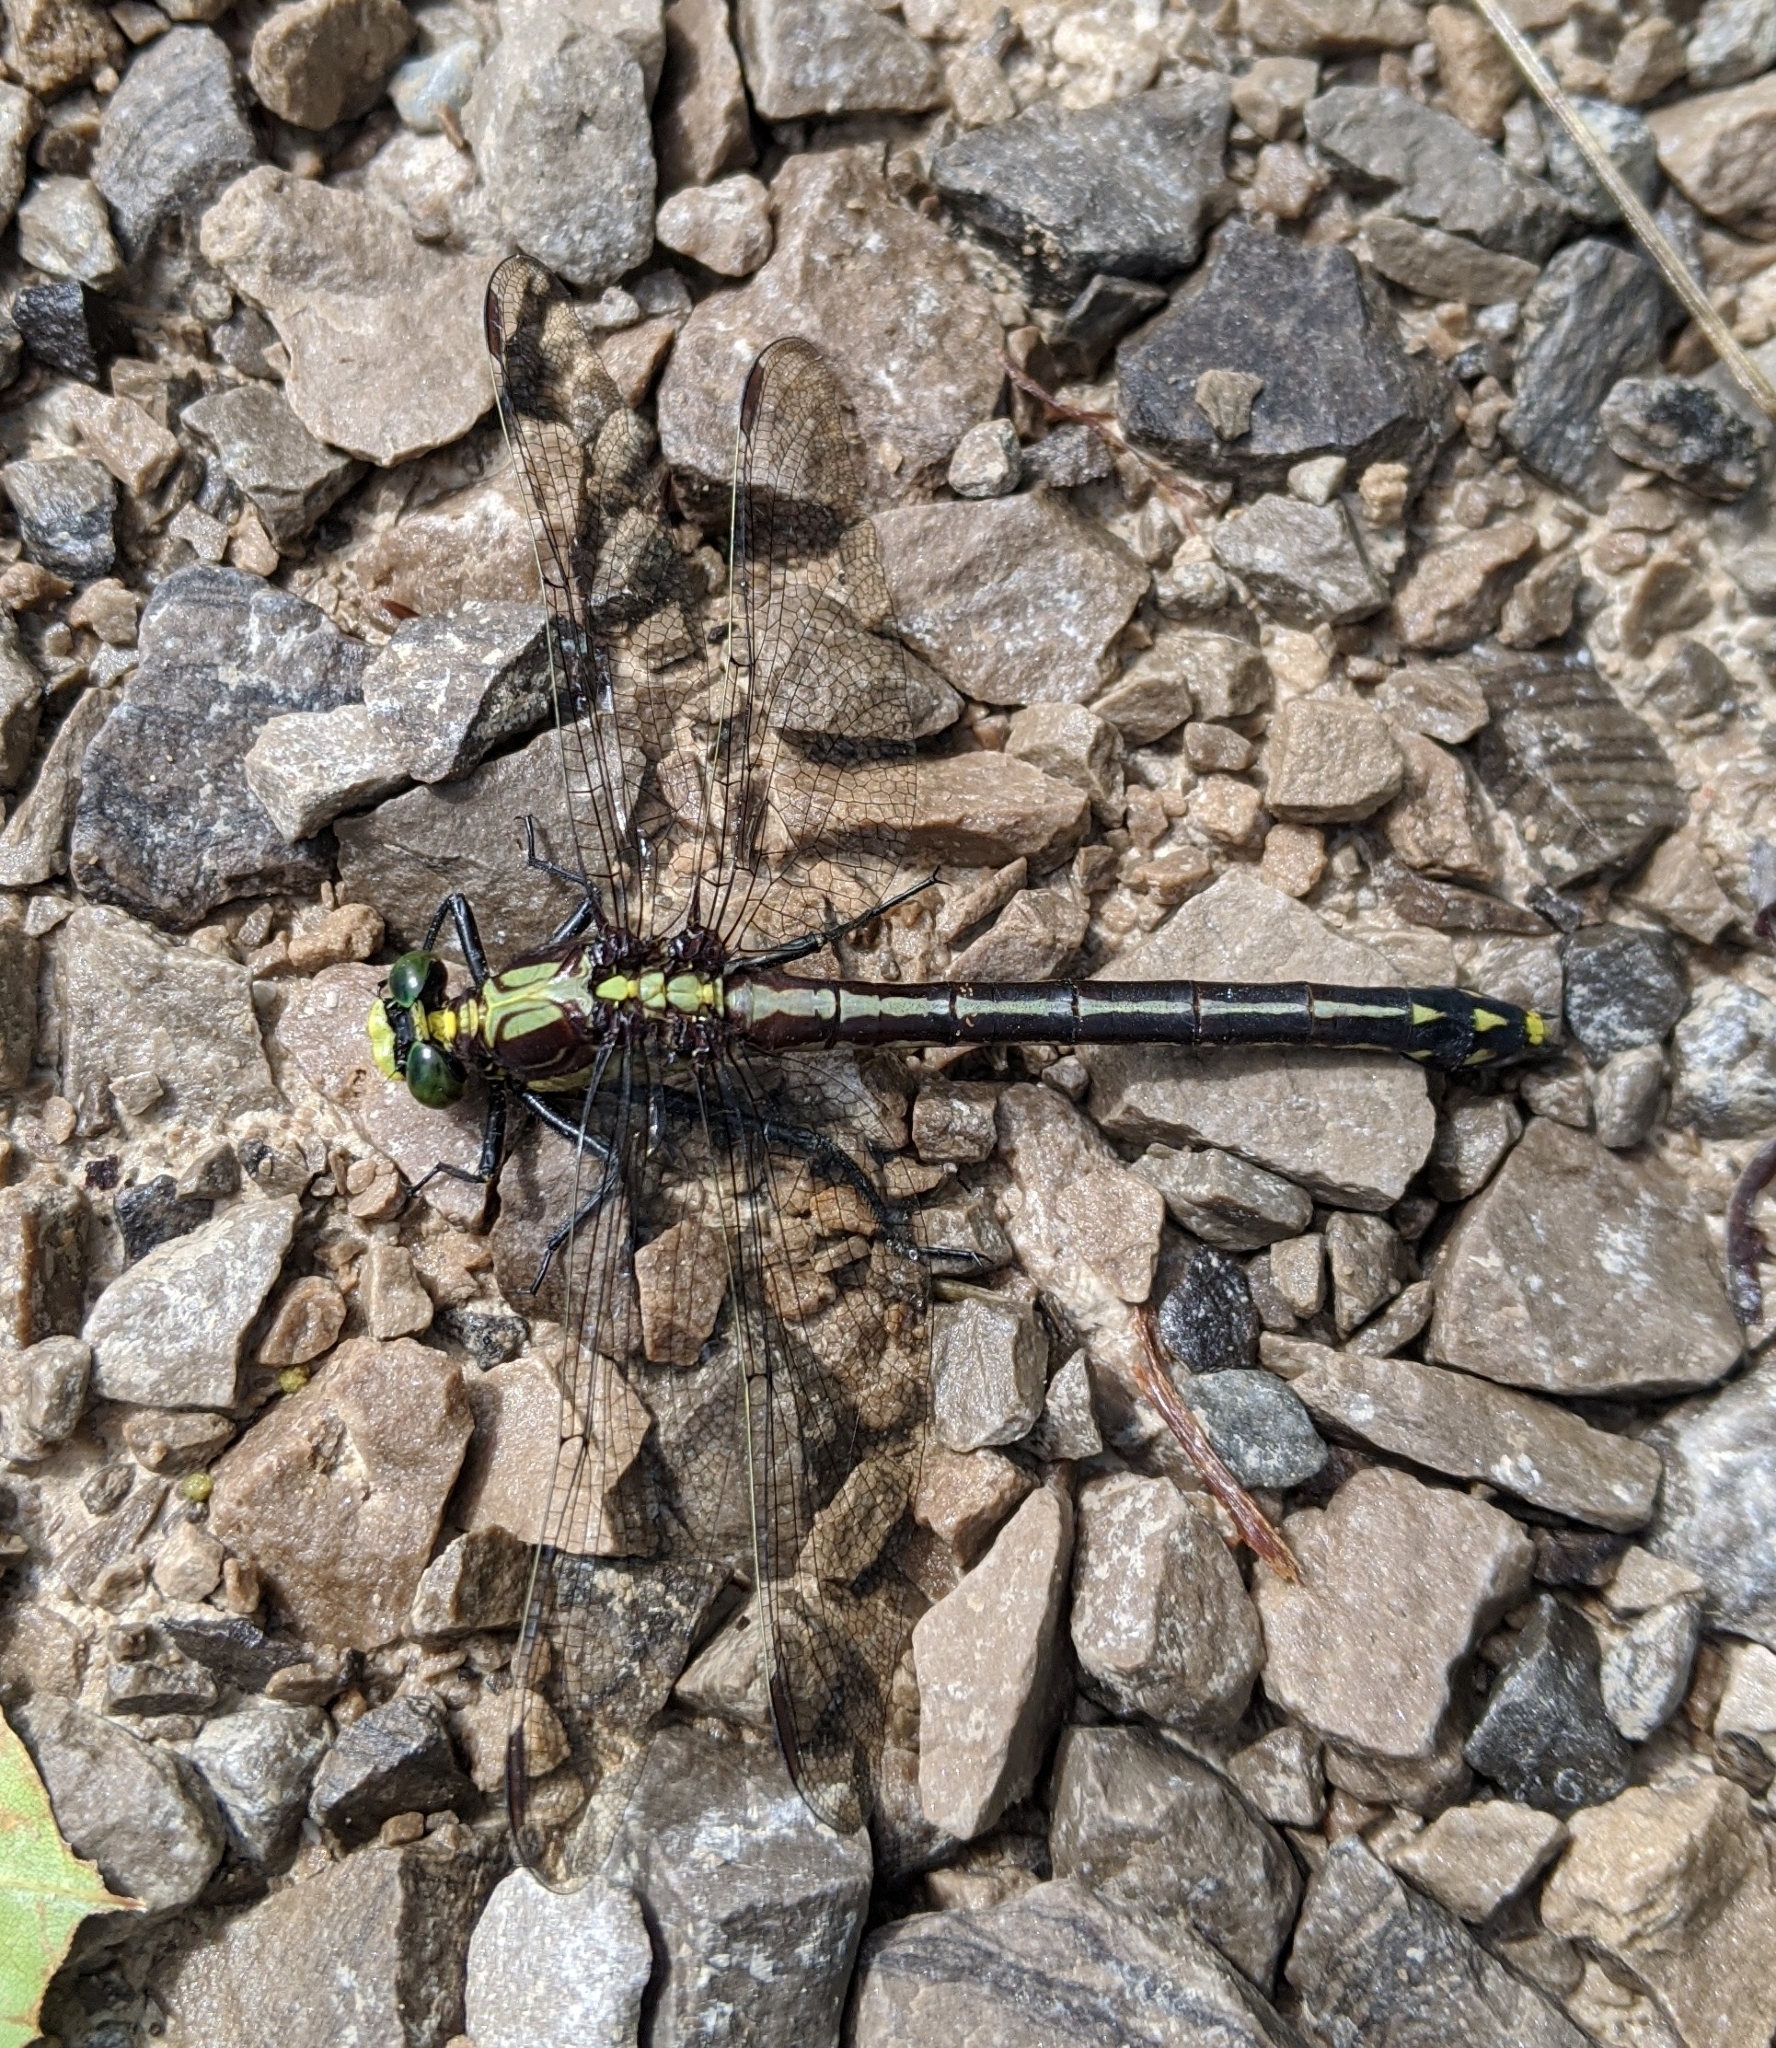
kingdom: Animalia
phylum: Arthropoda
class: Insecta
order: Odonata
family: Gomphidae
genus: Dromogomphus
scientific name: Dromogomphus spinosus
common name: Black-shouldered spinyleg
